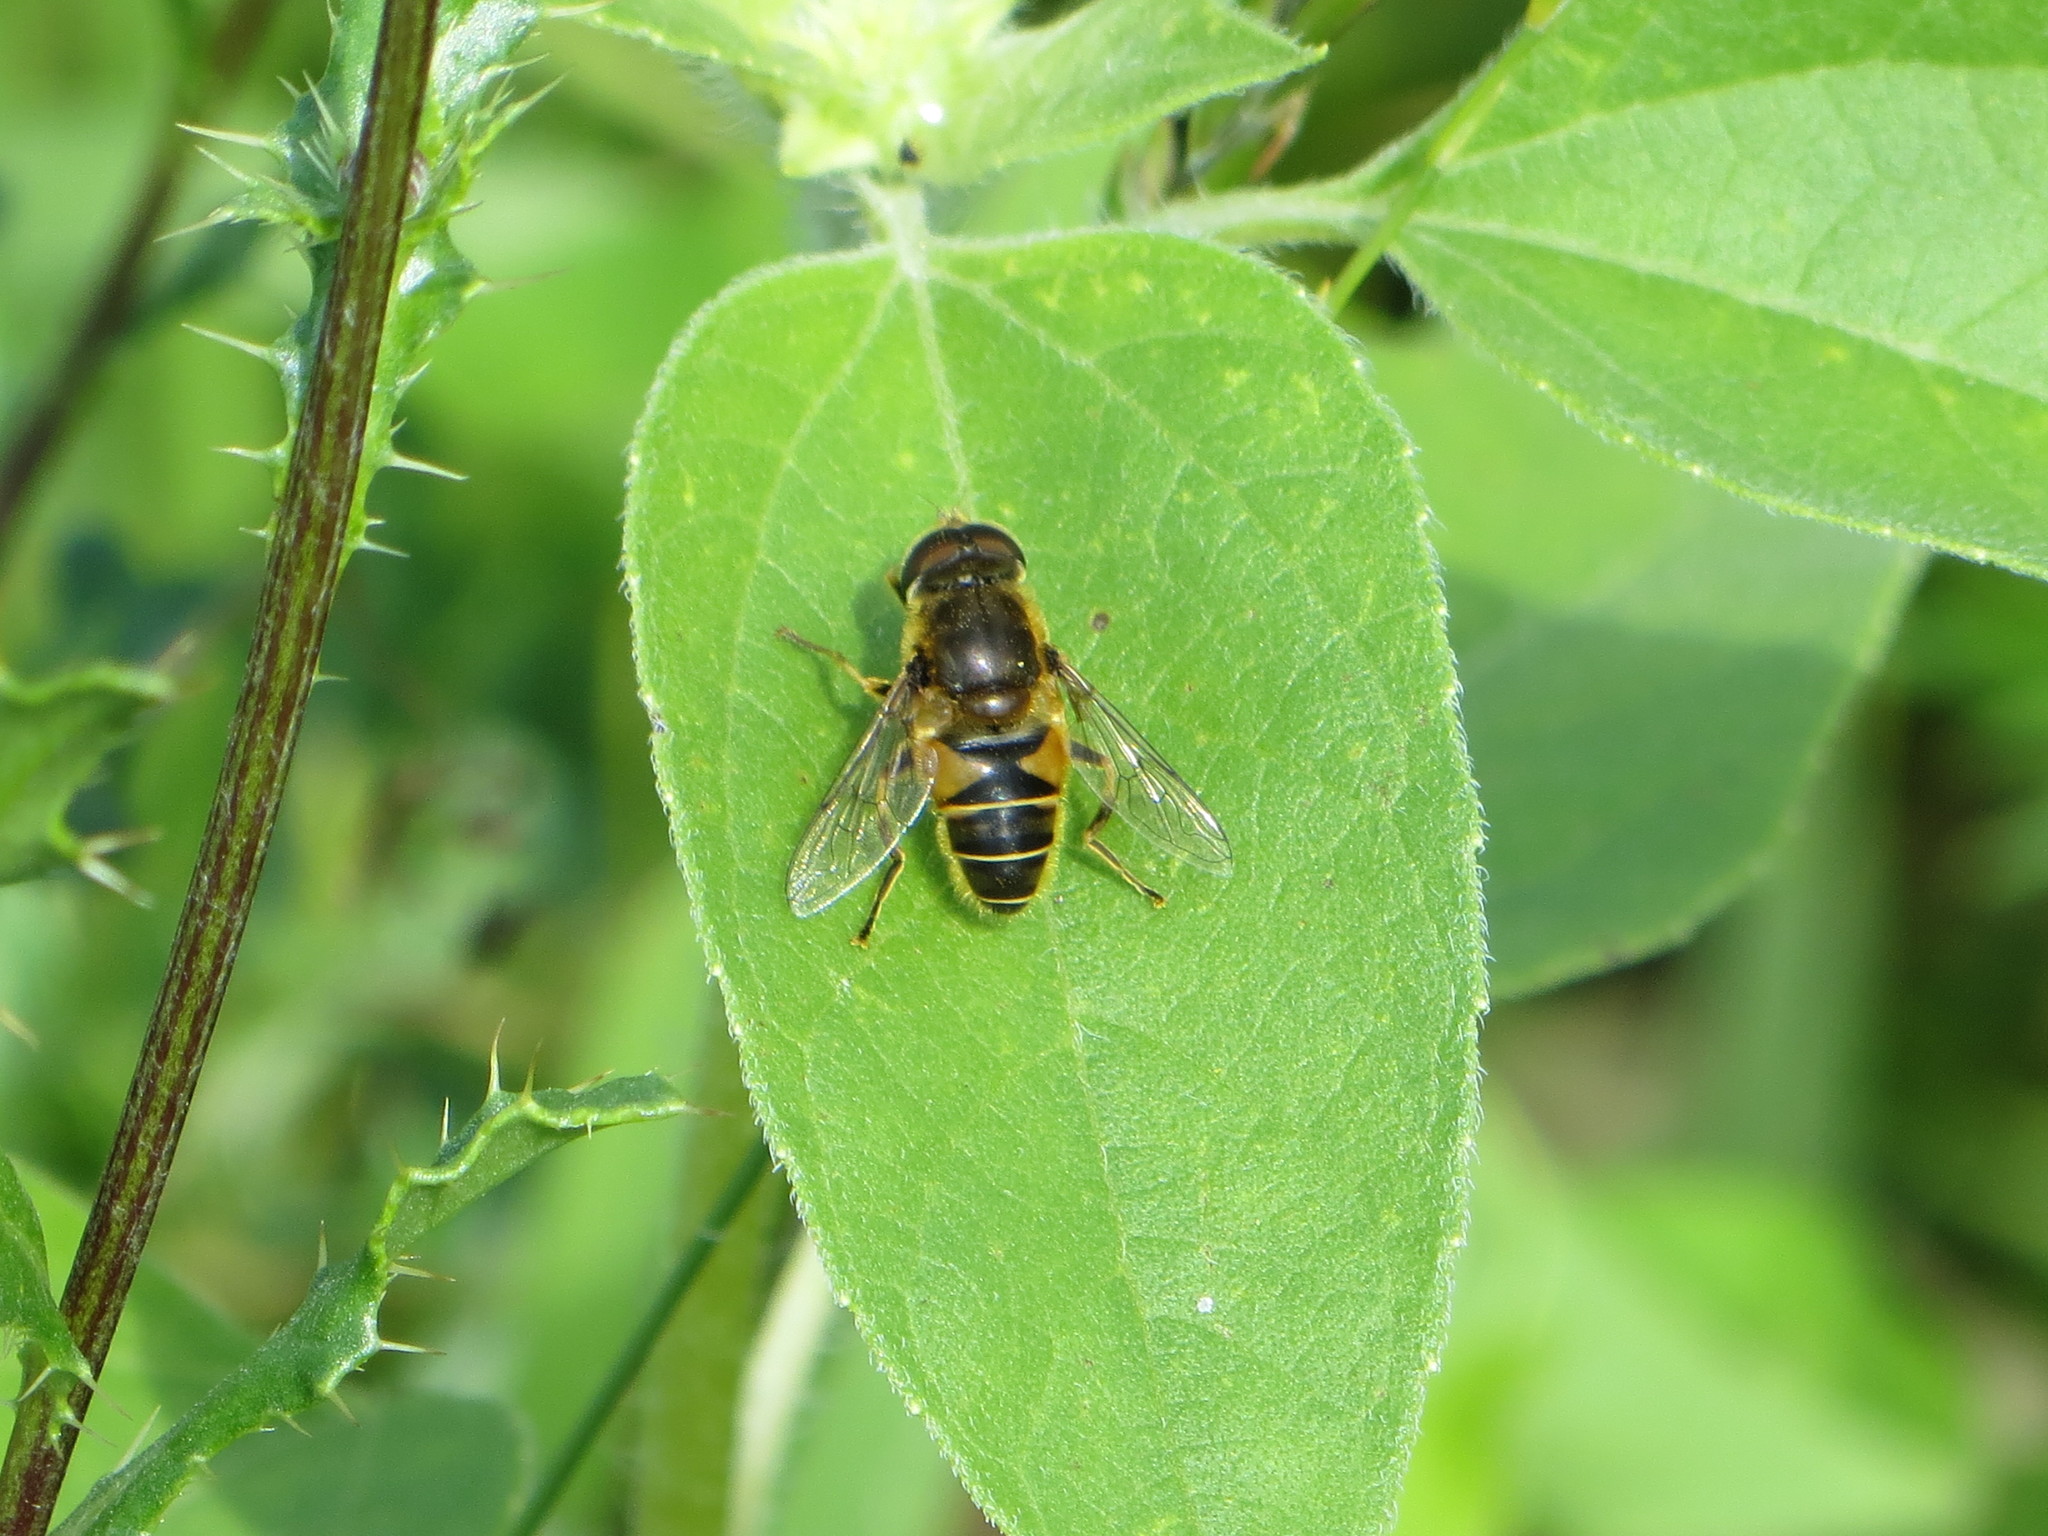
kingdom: Animalia
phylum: Arthropoda
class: Insecta
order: Diptera
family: Syrphidae
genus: Eristalis
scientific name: Eristalis nemorum
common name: Orange-spined drone fly
